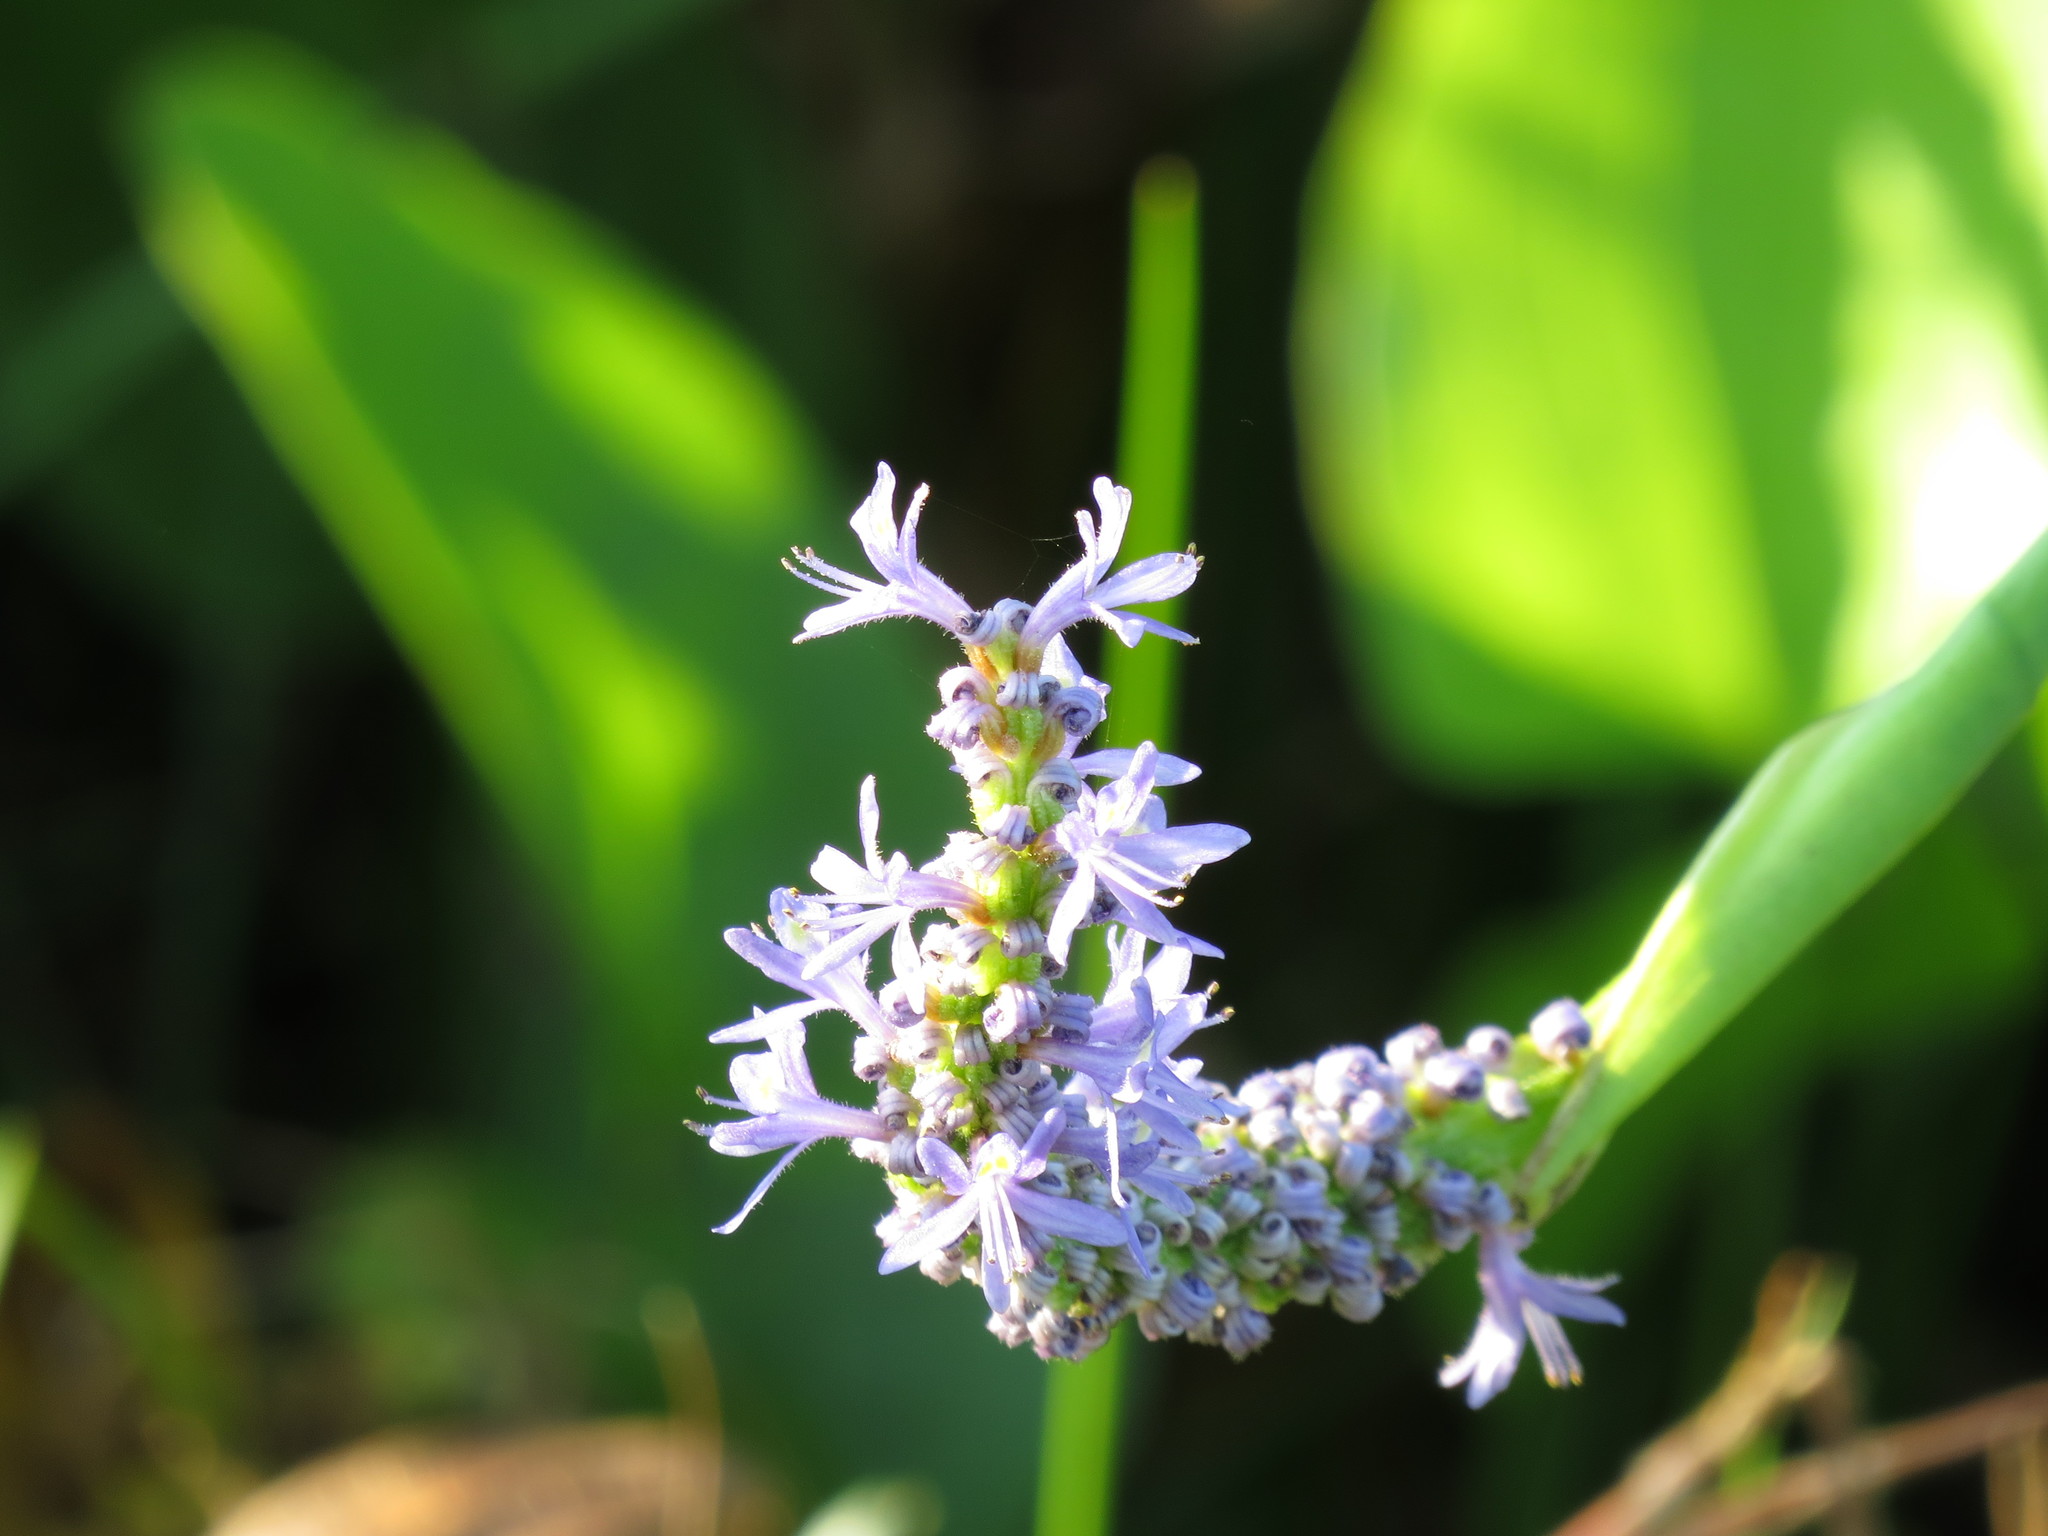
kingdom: Plantae
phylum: Tracheophyta
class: Liliopsida
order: Commelinales
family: Pontederiaceae
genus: Pontederia
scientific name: Pontederia cordata
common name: Pickerelweed
